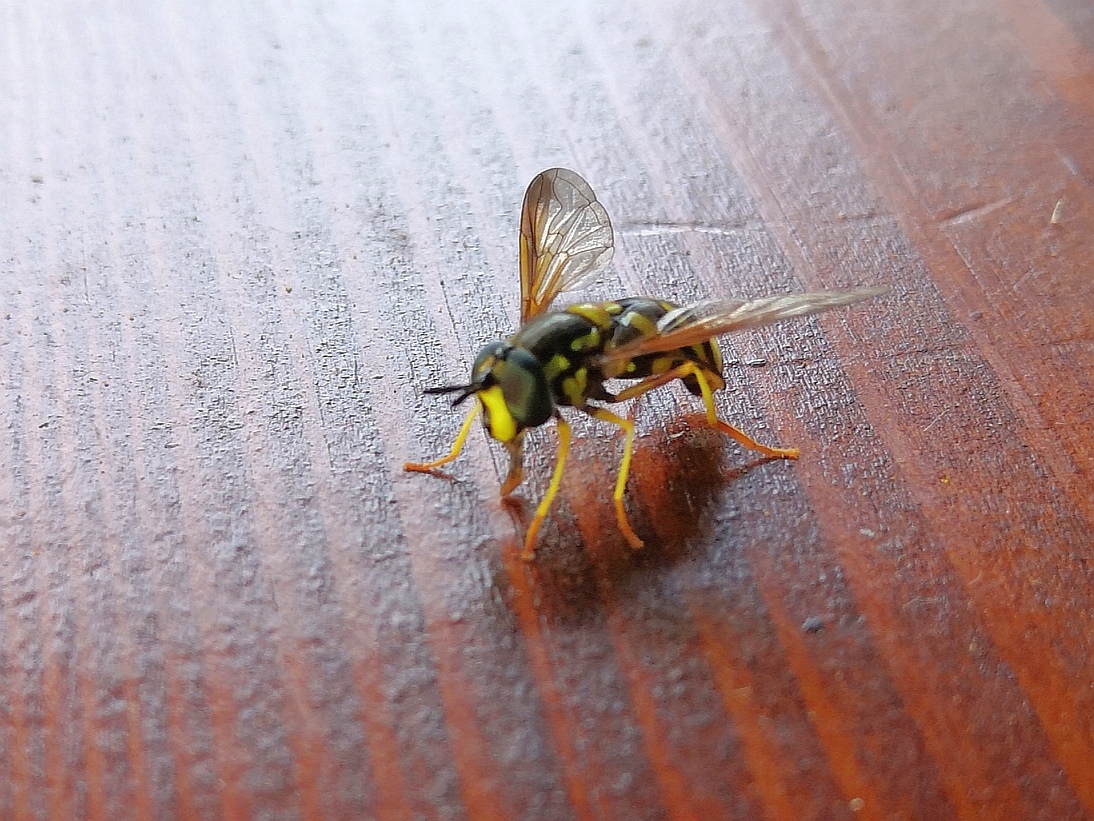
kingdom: Animalia
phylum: Arthropoda
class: Insecta
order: Diptera
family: Syrphidae
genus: Chrysotoxum
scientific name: Chrysotoxum intermedium
